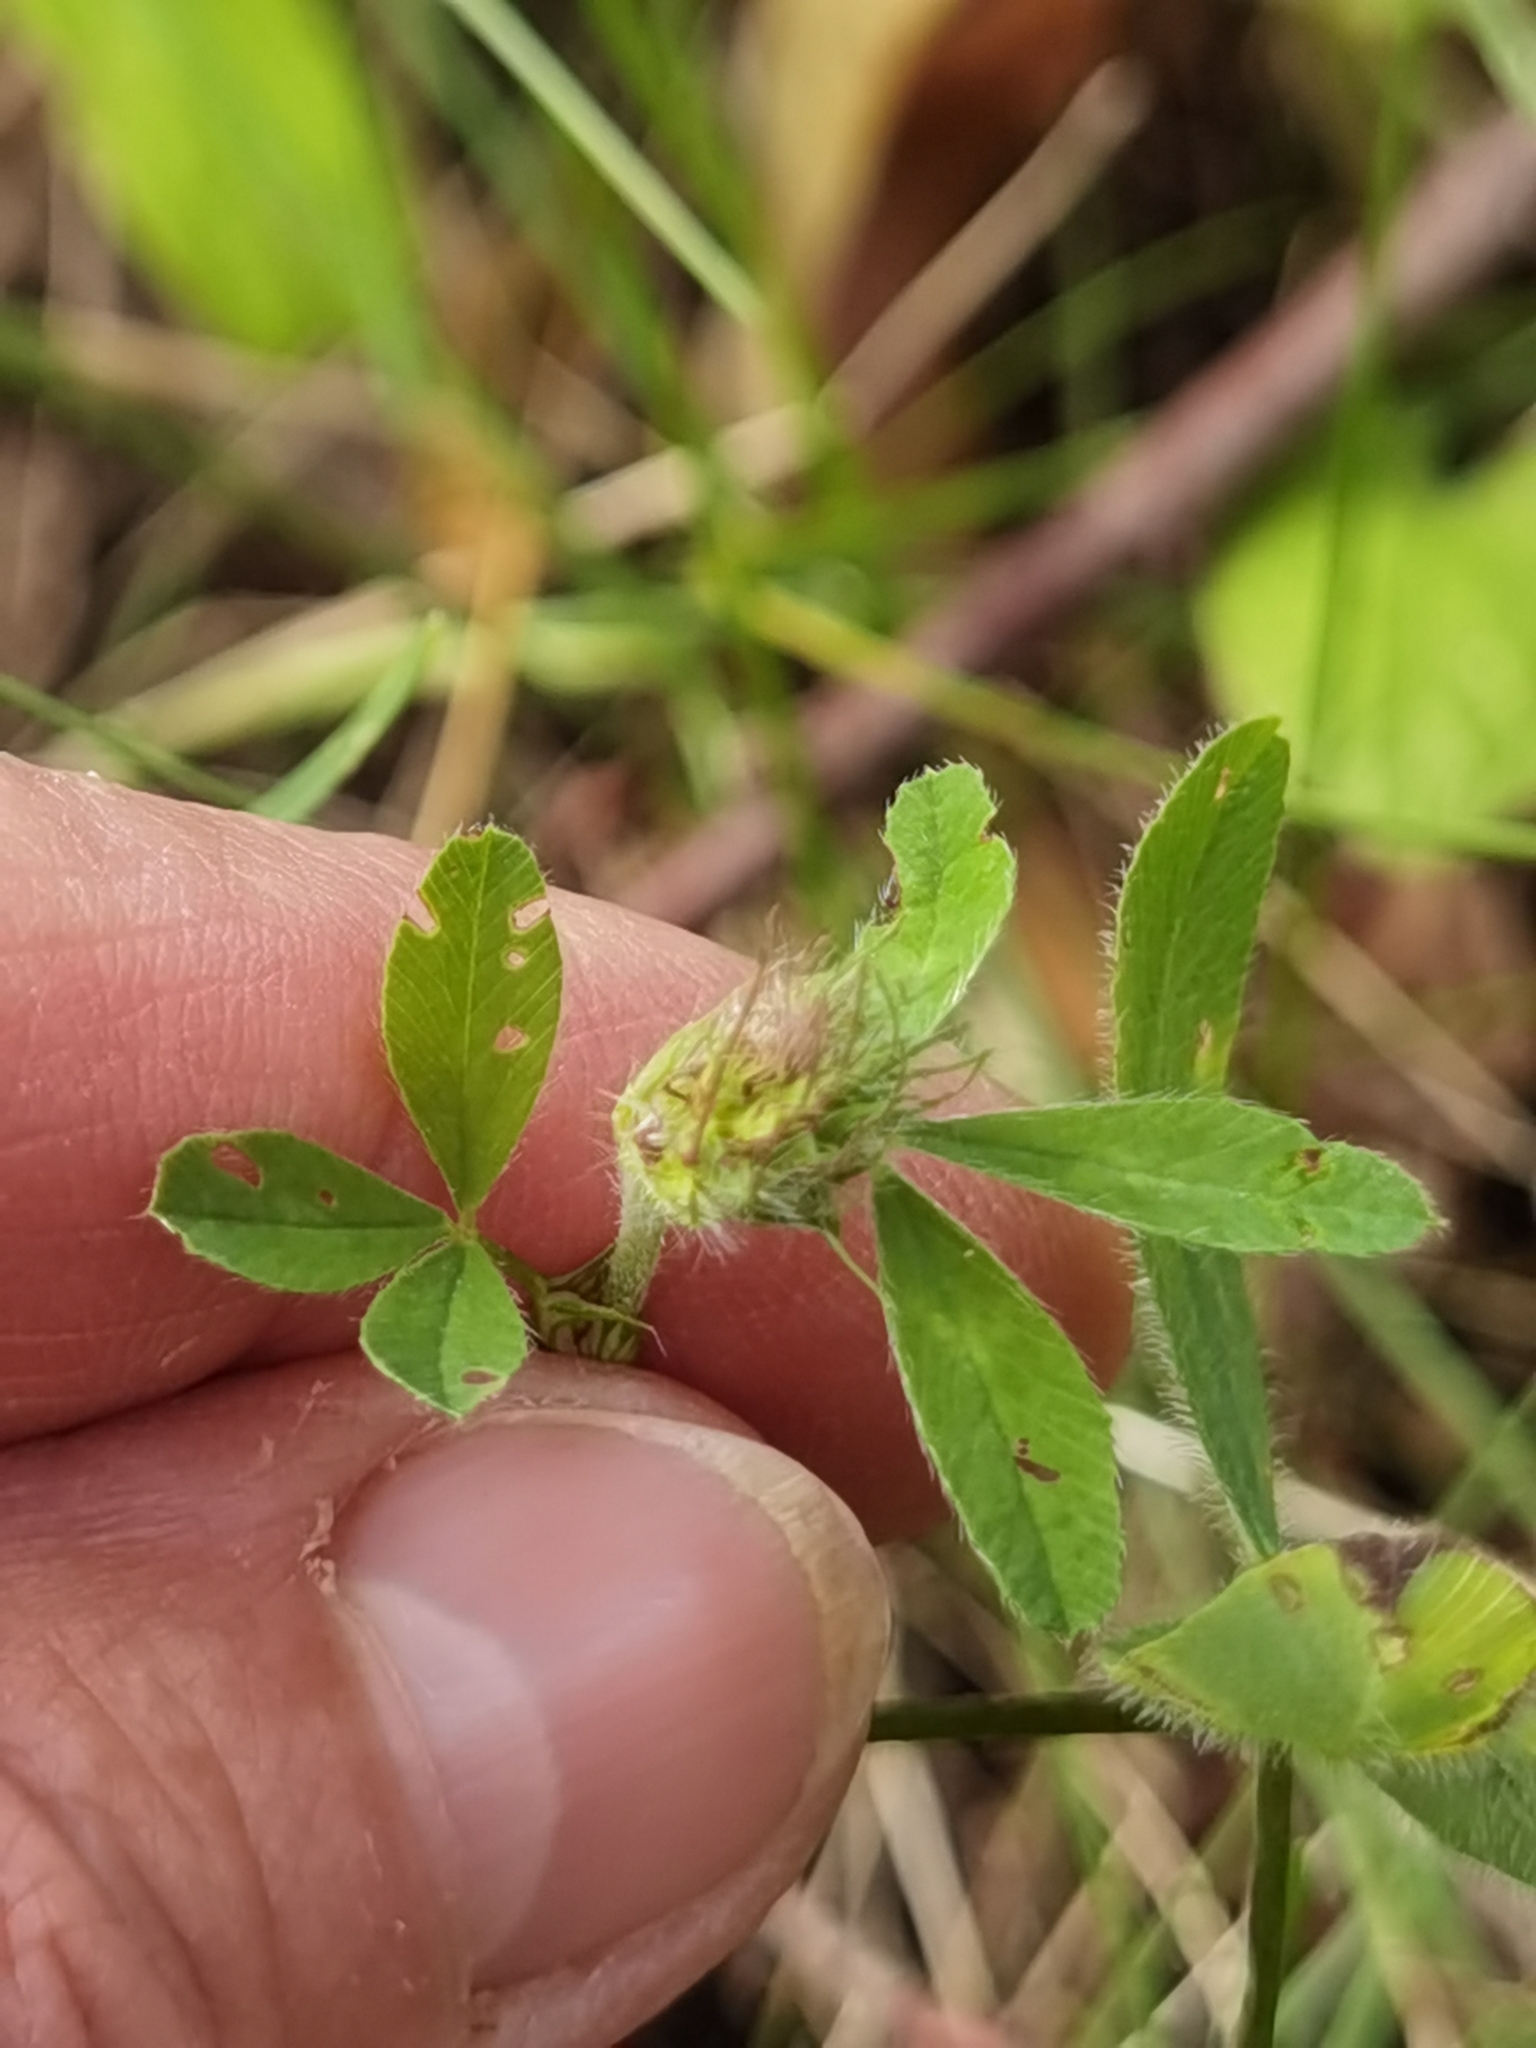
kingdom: Plantae
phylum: Tracheophyta
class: Magnoliopsida
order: Fabales
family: Fabaceae
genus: Trifolium
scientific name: Trifolium pratense
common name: Red clover
